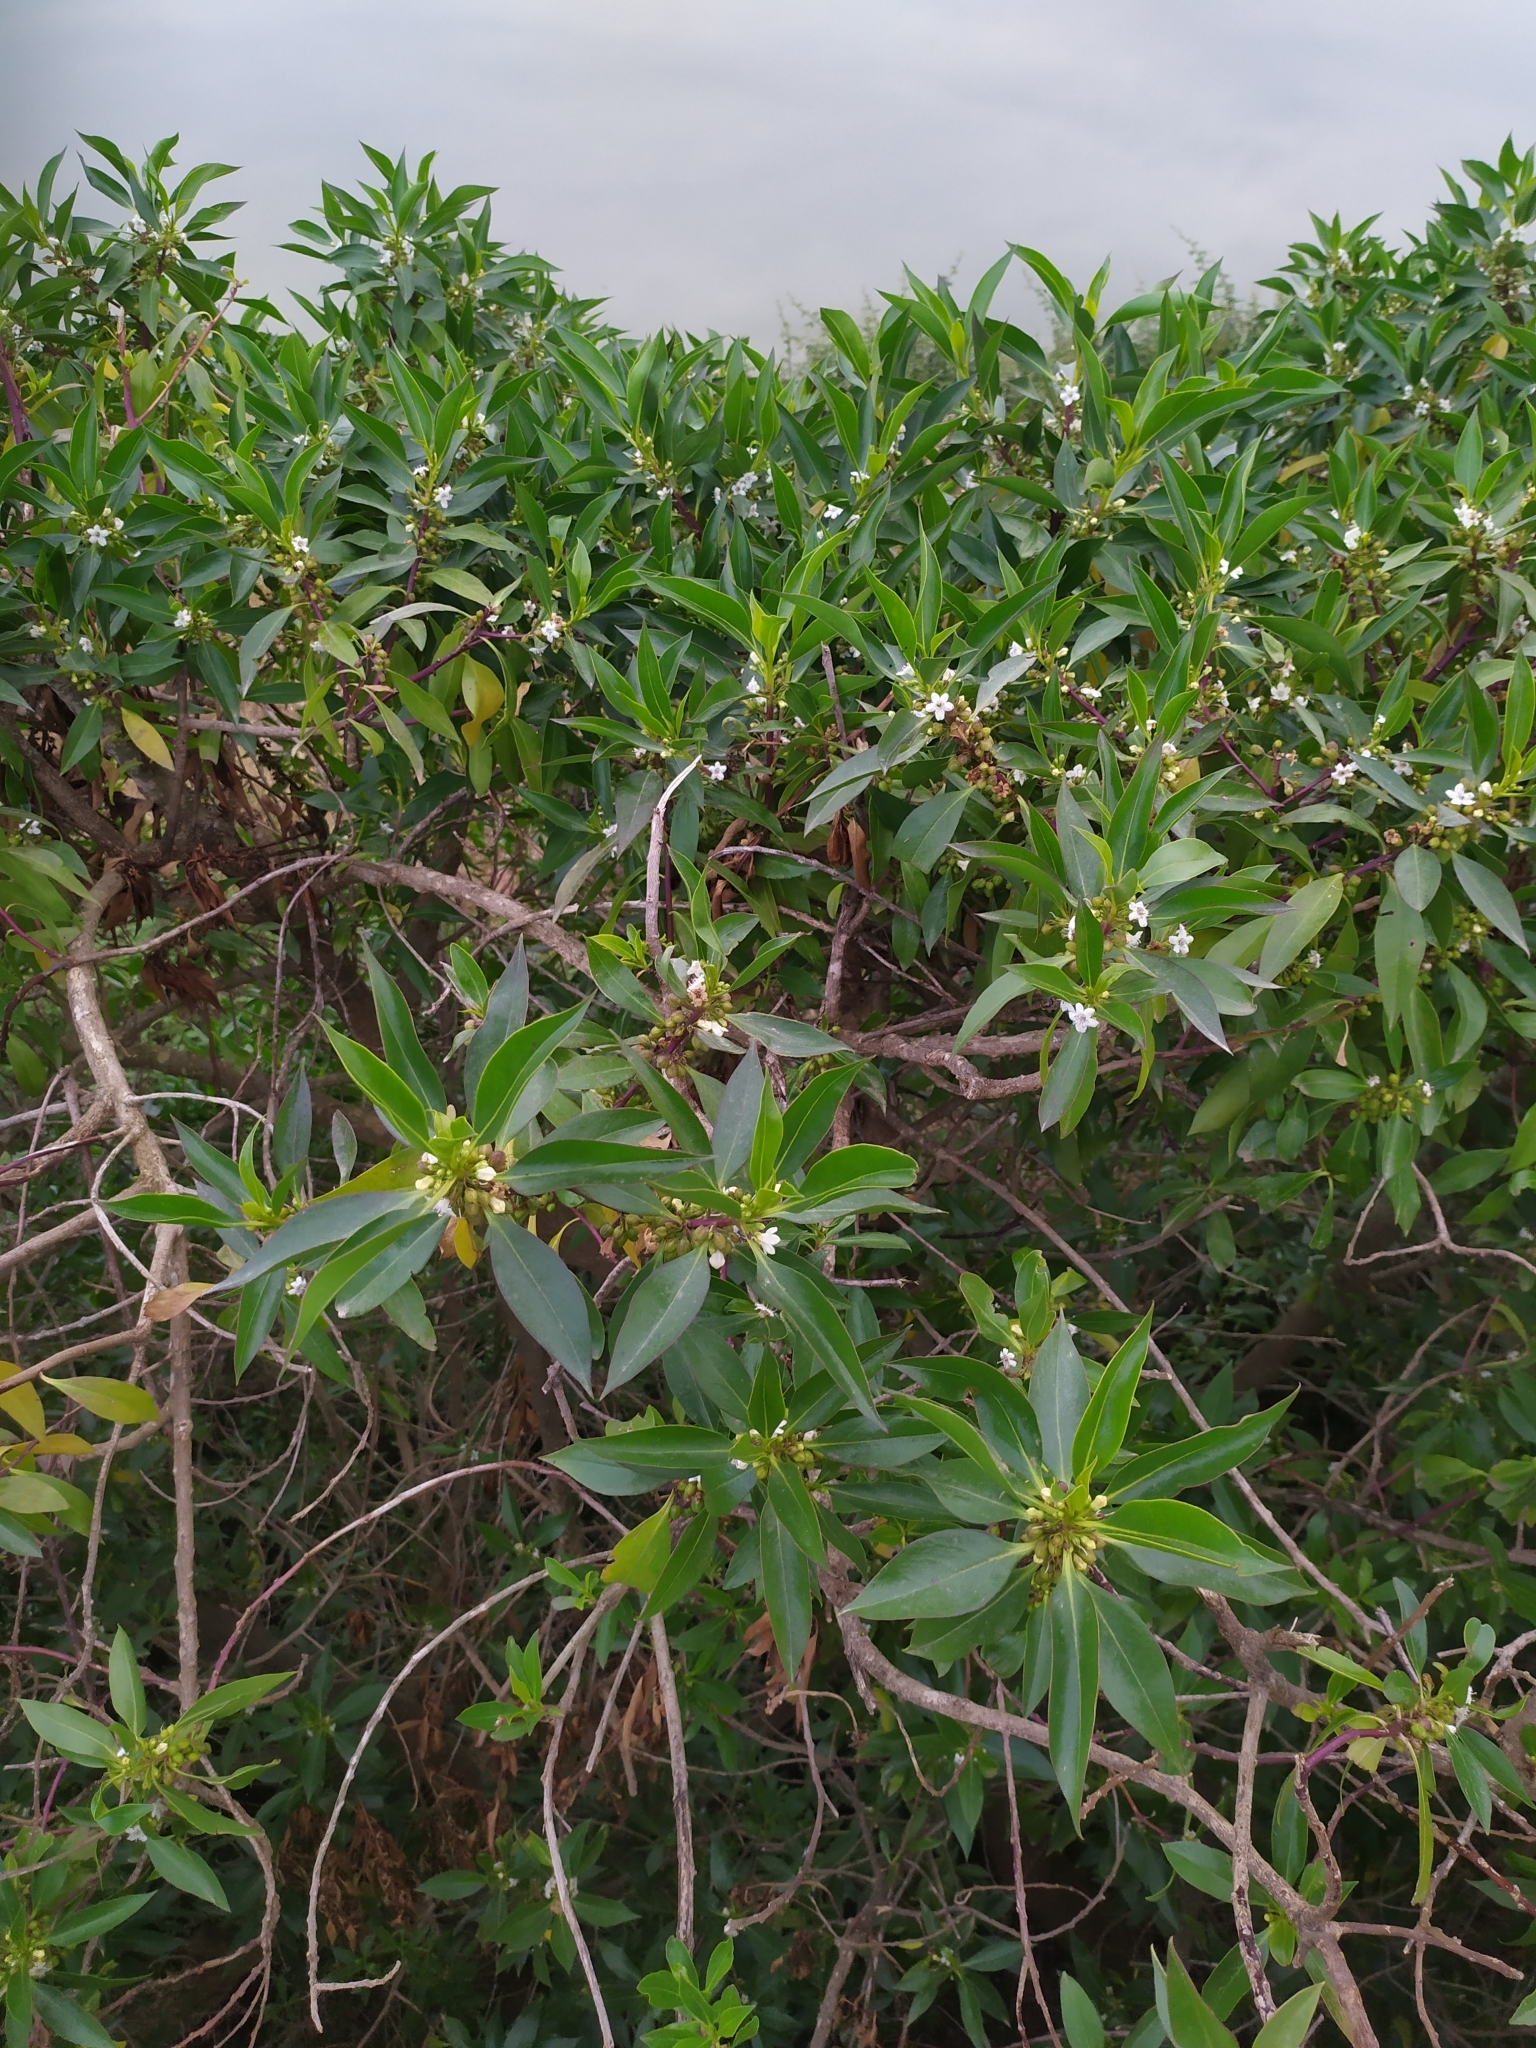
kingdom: Plantae
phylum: Tracheophyta
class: Magnoliopsida
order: Lamiales
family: Scrophulariaceae
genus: Myoporum
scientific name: Myoporum laetum
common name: Ngaio tree
